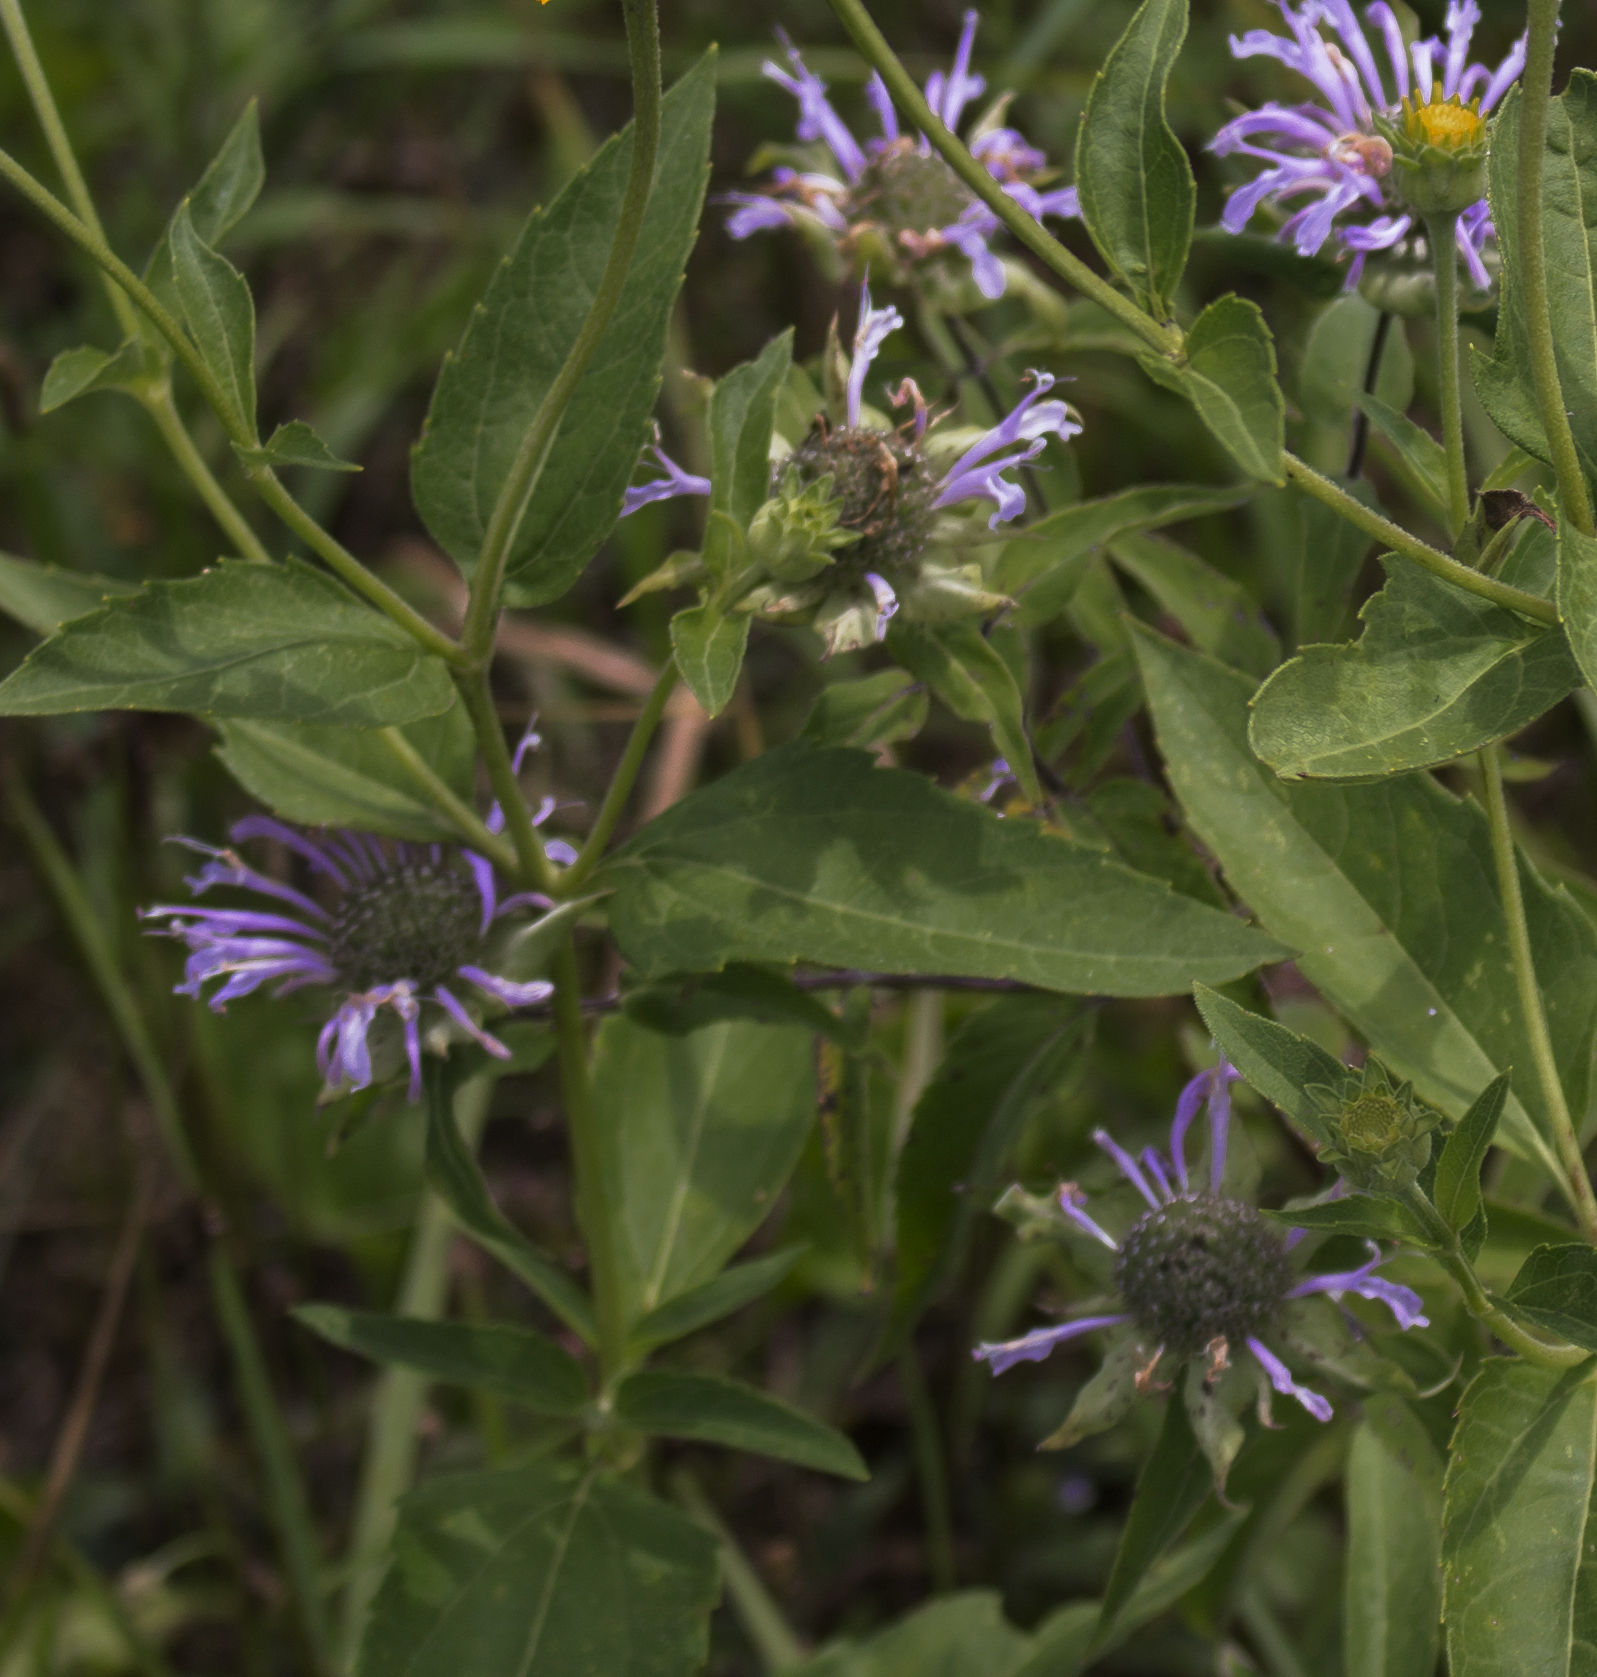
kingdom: Plantae
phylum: Tracheophyta
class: Magnoliopsida
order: Lamiales
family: Lamiaceae
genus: Monarda
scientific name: Monarda fistulosa
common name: Purple beebalm
